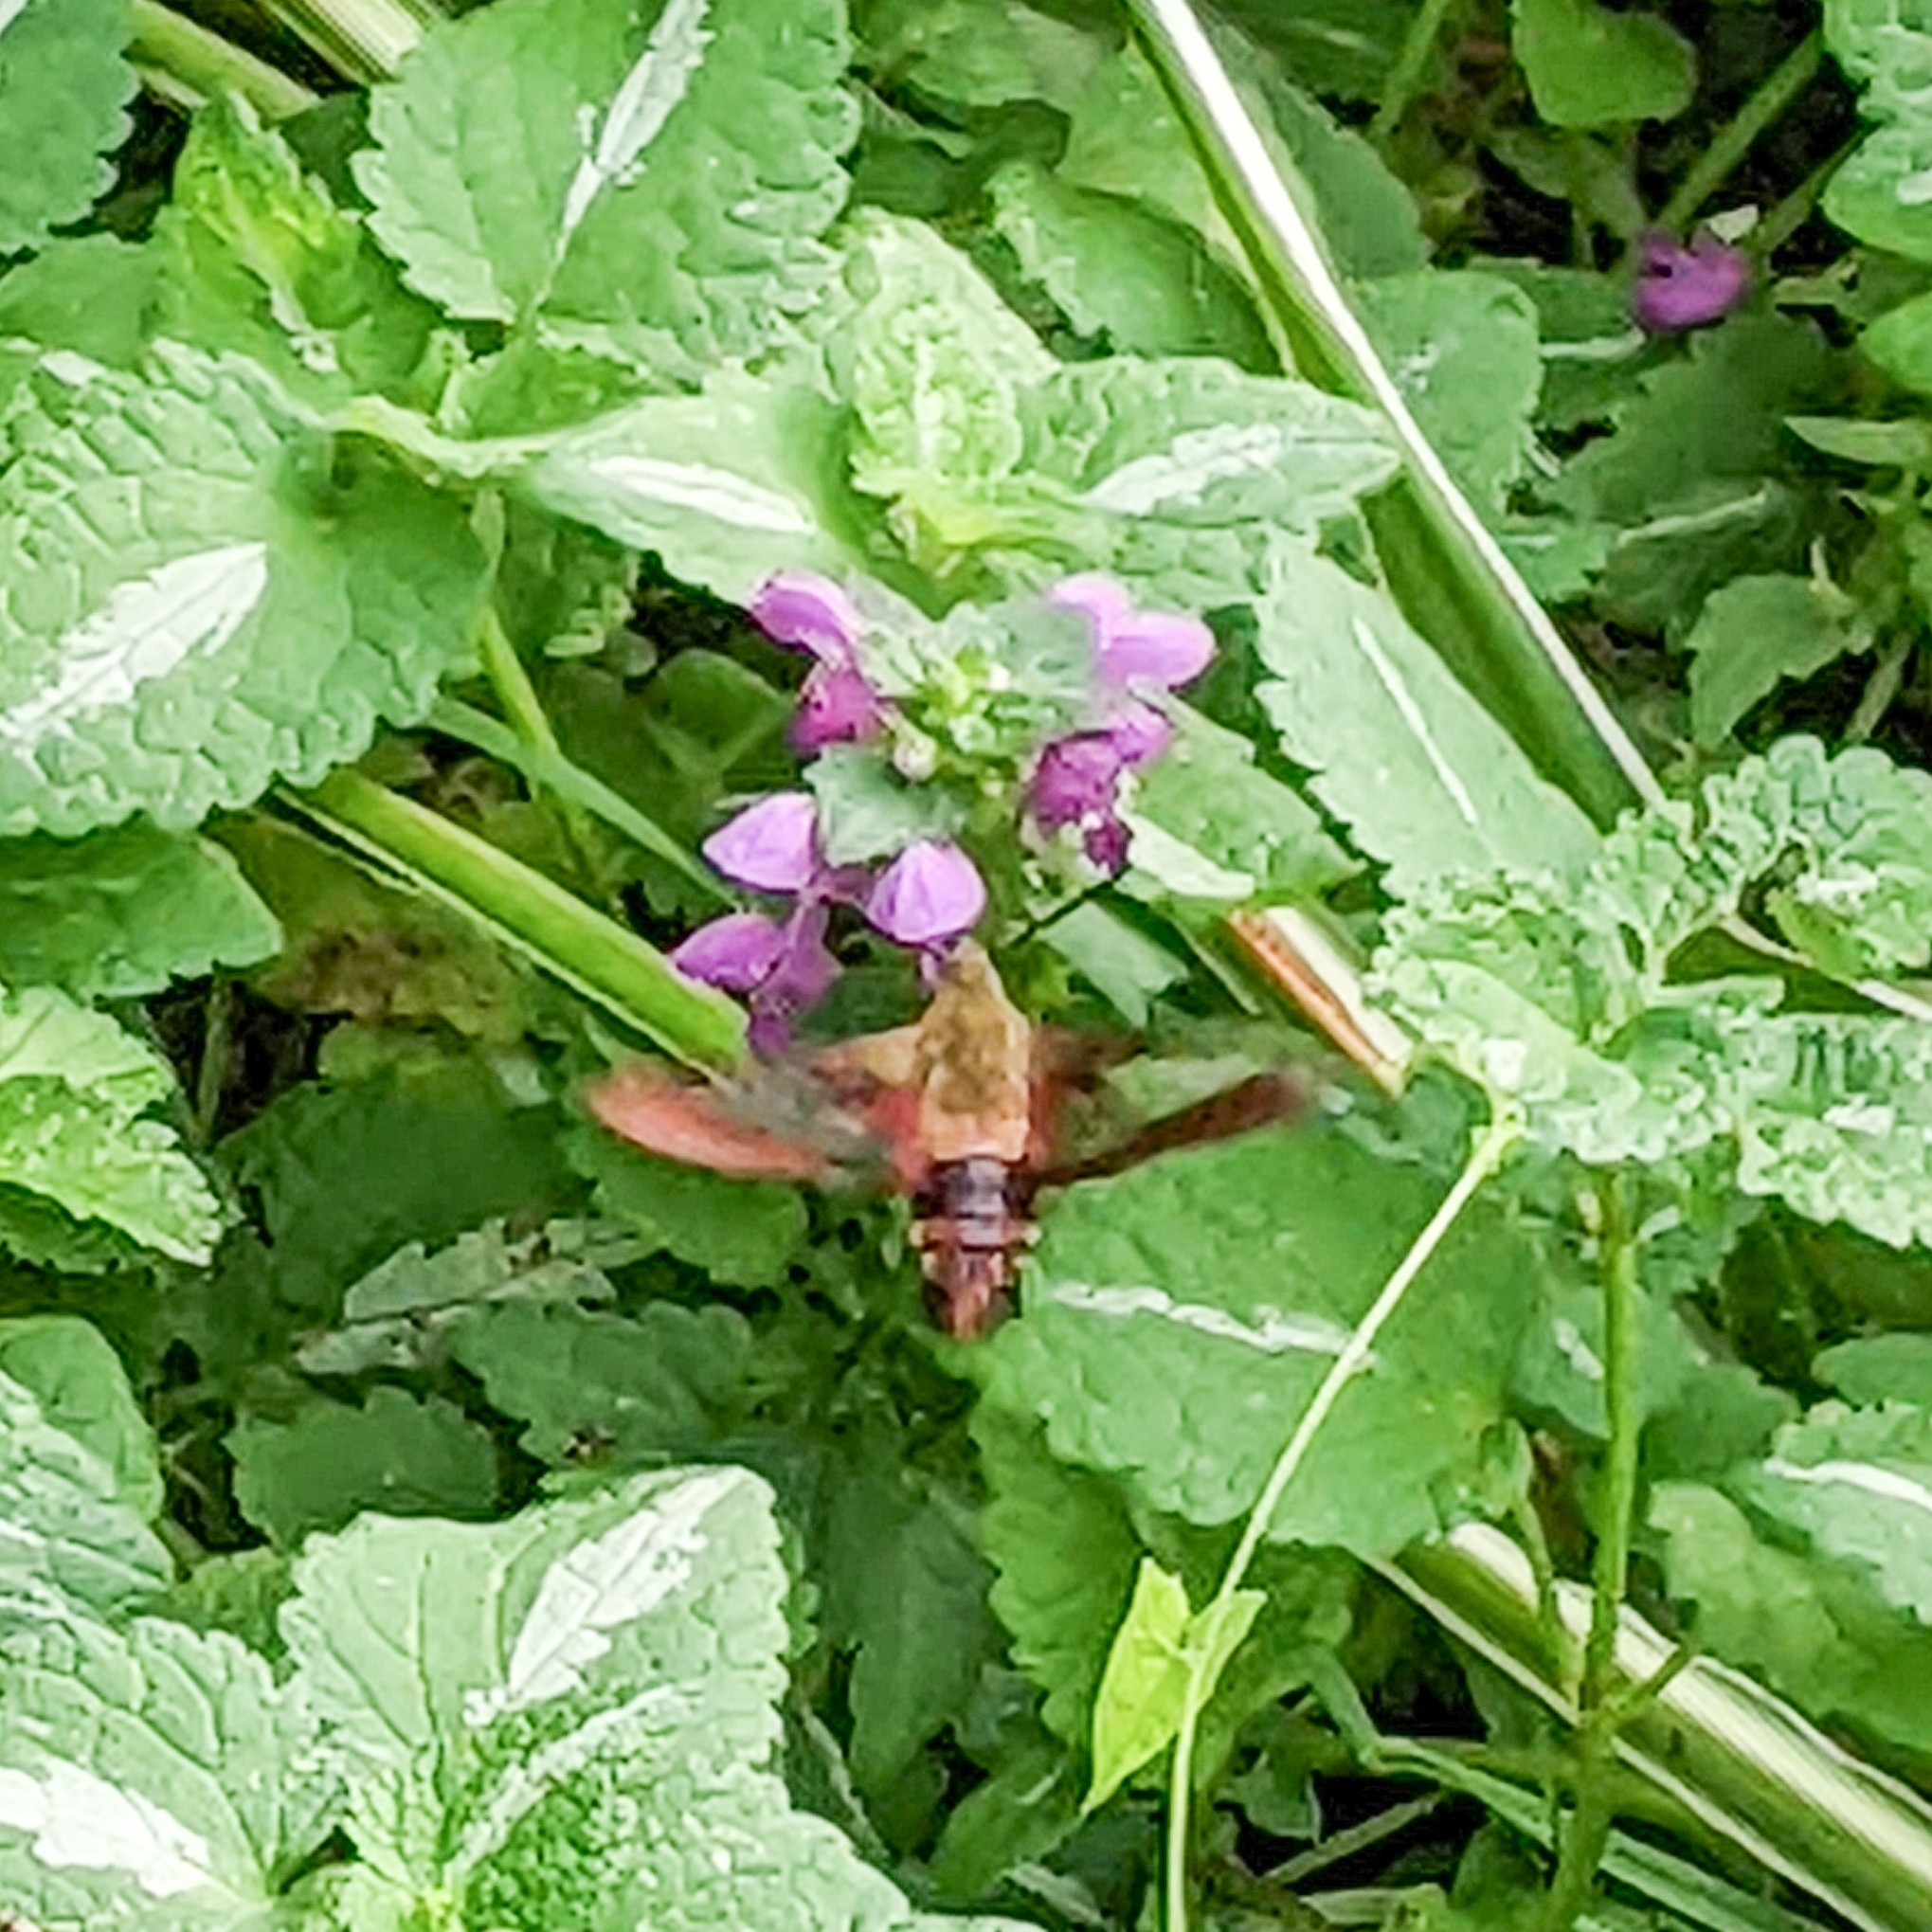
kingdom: Animalia
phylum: Arthropoda
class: Insecta
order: Lepidoptera
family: Sphingidae
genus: Hemaris
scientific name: Hemaris thysbe
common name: Common clear-wing
